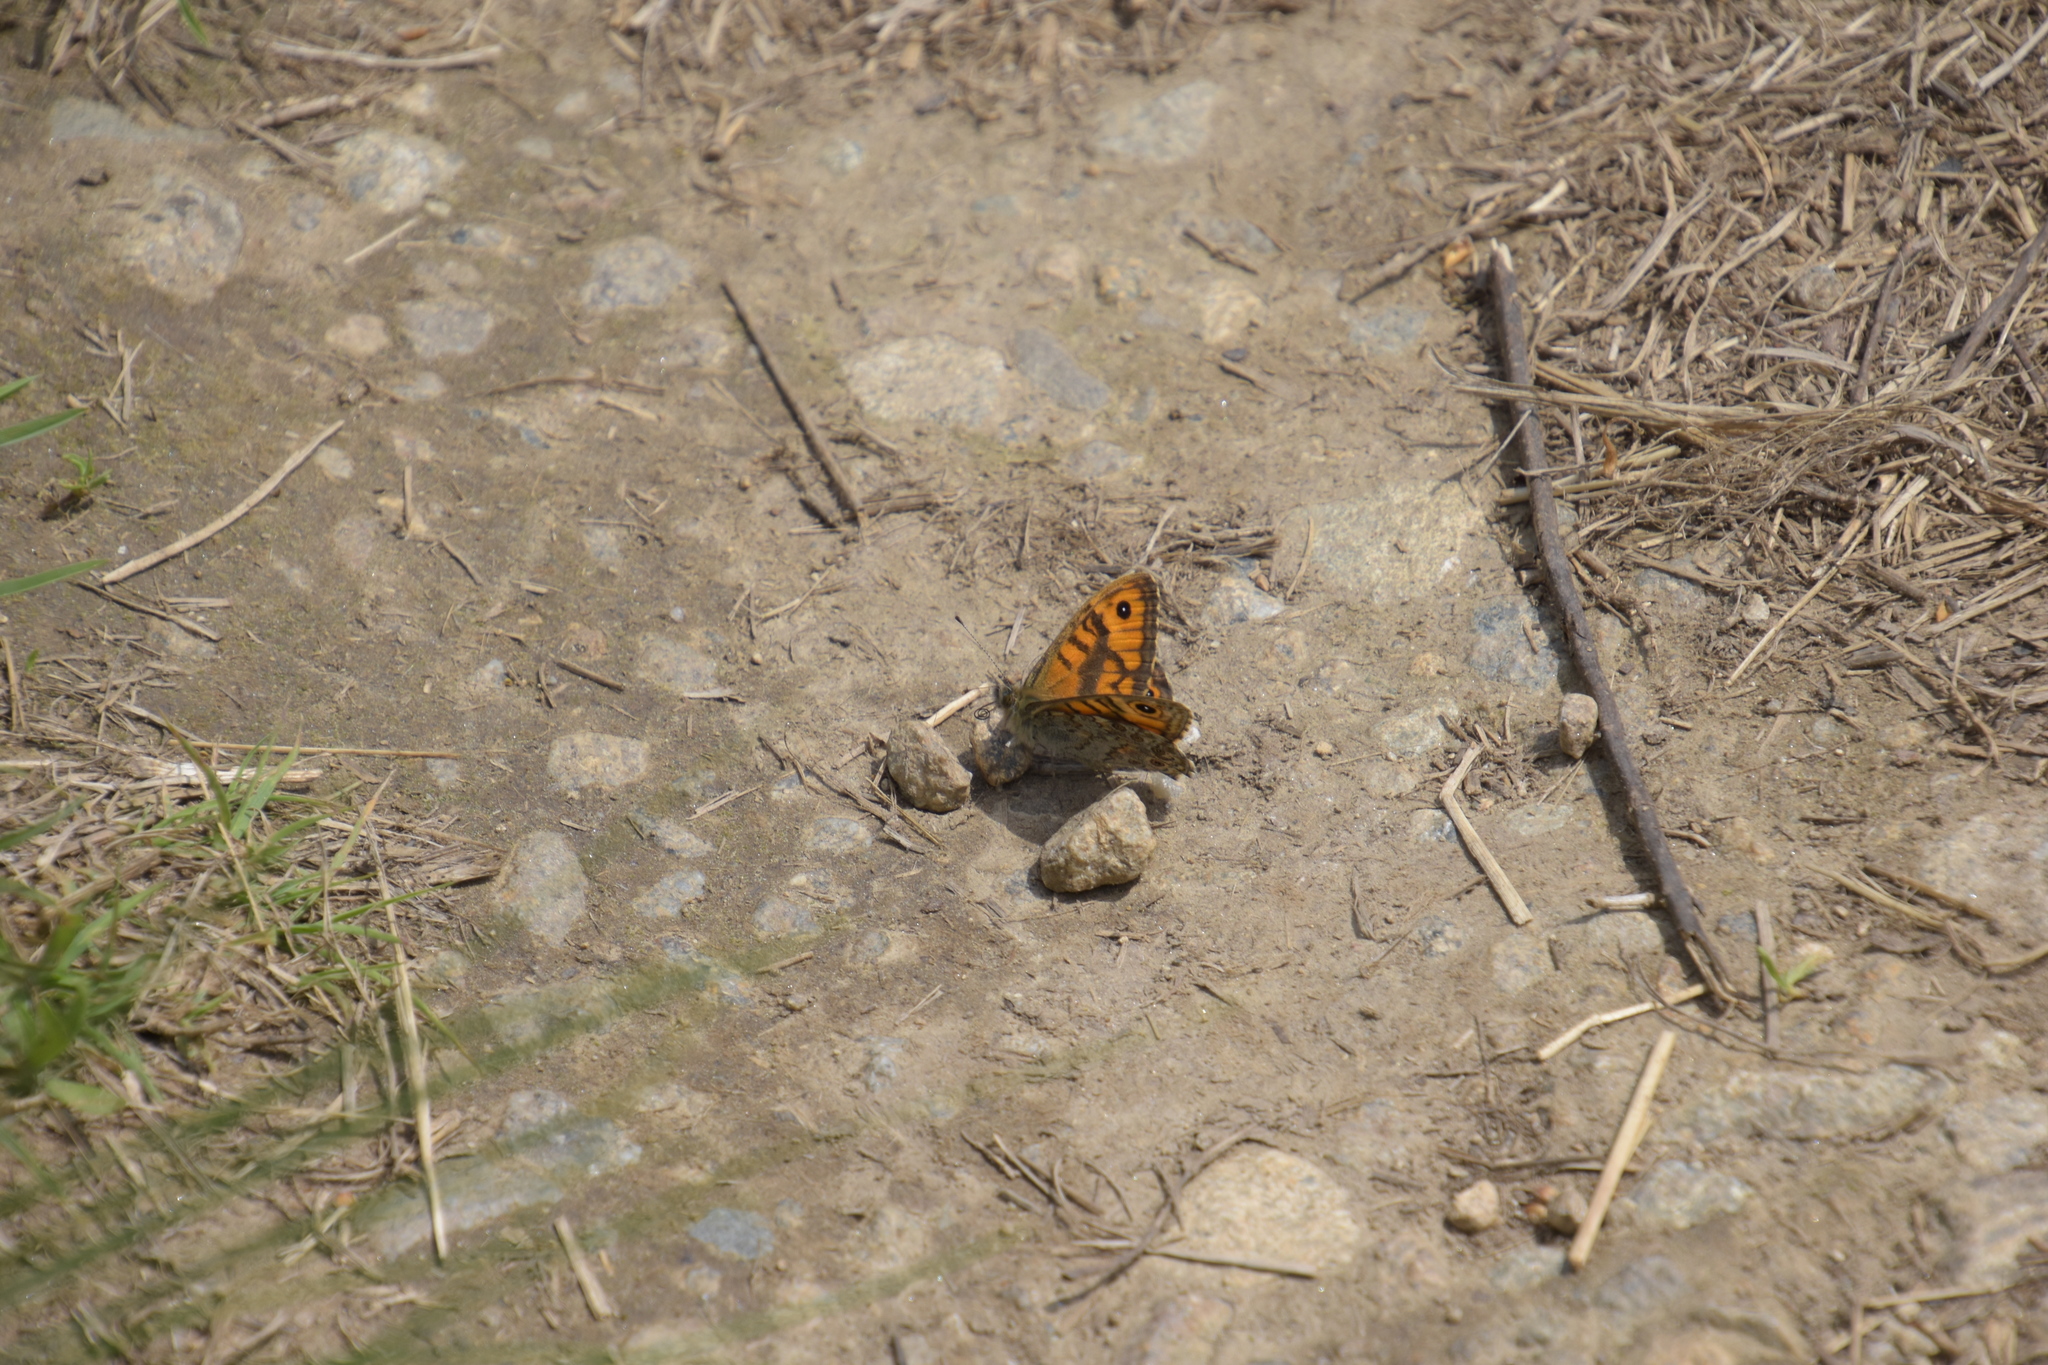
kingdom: Animalia
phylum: Arthropoda
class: Insecta
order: Lepidoptera
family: Nymphalidae
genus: Pararge
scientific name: Pararge Lasiommata megera
